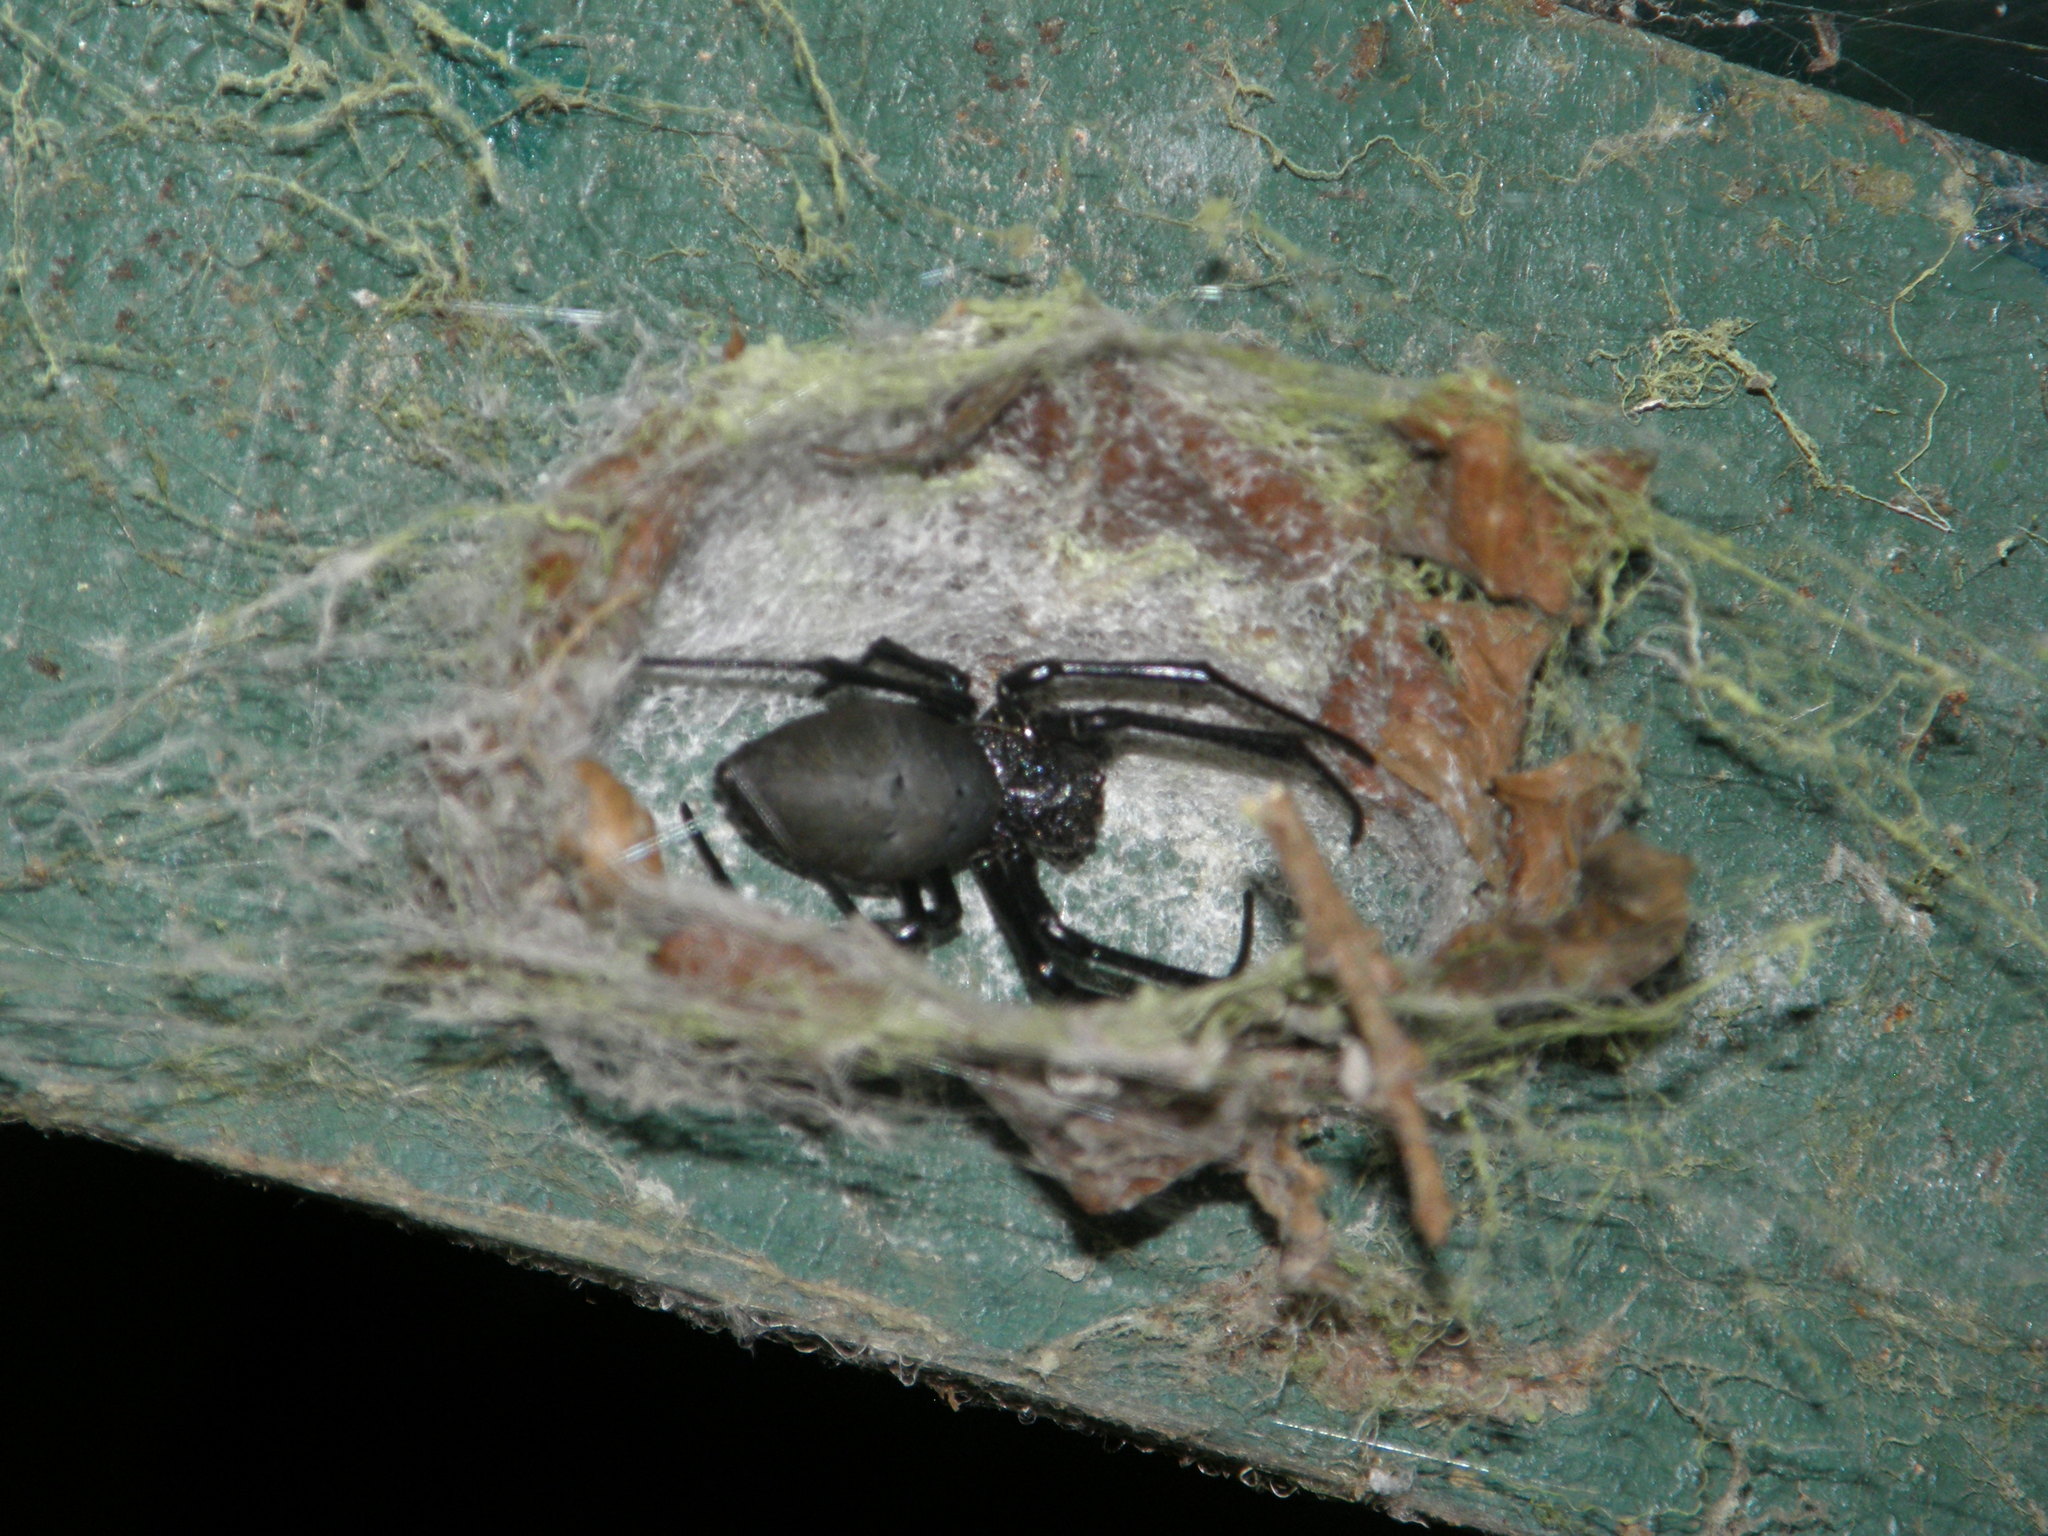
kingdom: Animalia
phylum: Arthropoda
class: Arachnida
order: Araneae
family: Araneidae
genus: Nephilingis
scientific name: Nephilingis livida
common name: Madagascar hermit spider
